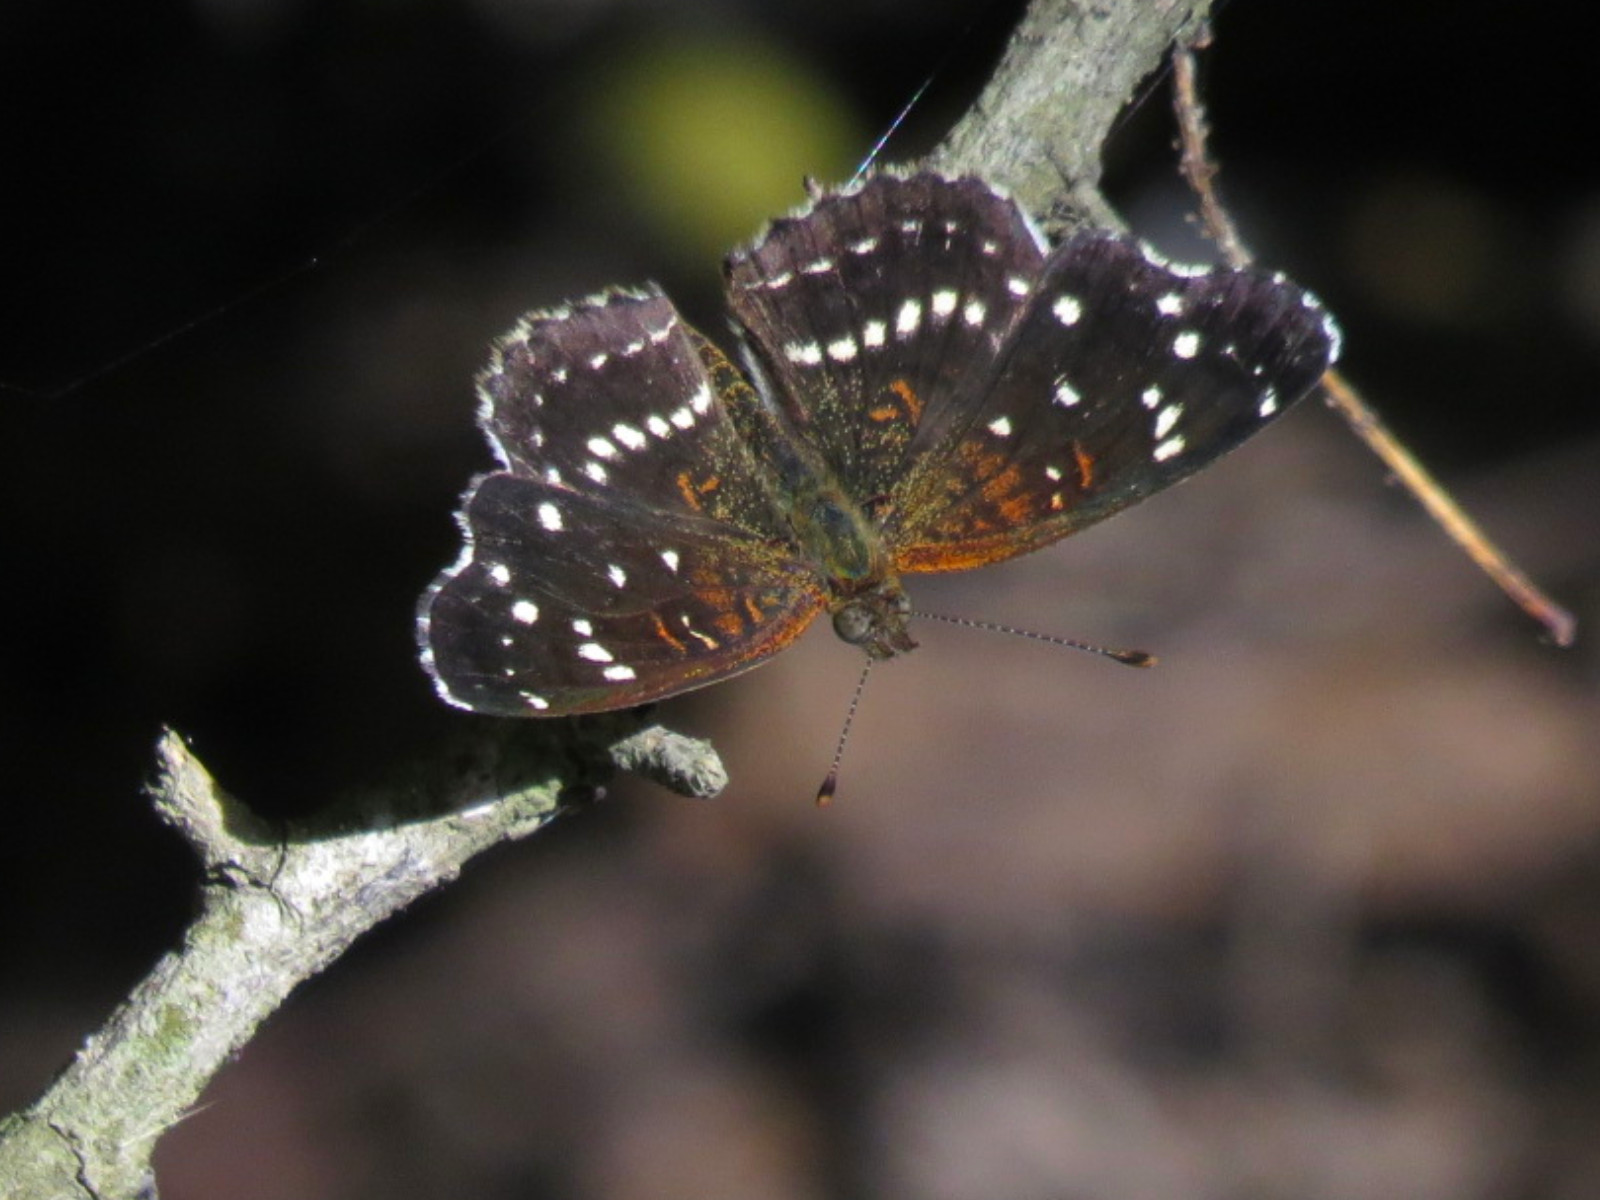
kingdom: Animalia
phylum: Arthropoda
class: Insecta
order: Lepidoptera
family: Nymphalidae
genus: Anthanassa
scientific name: Anthanassa texana
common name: Texan crescent
